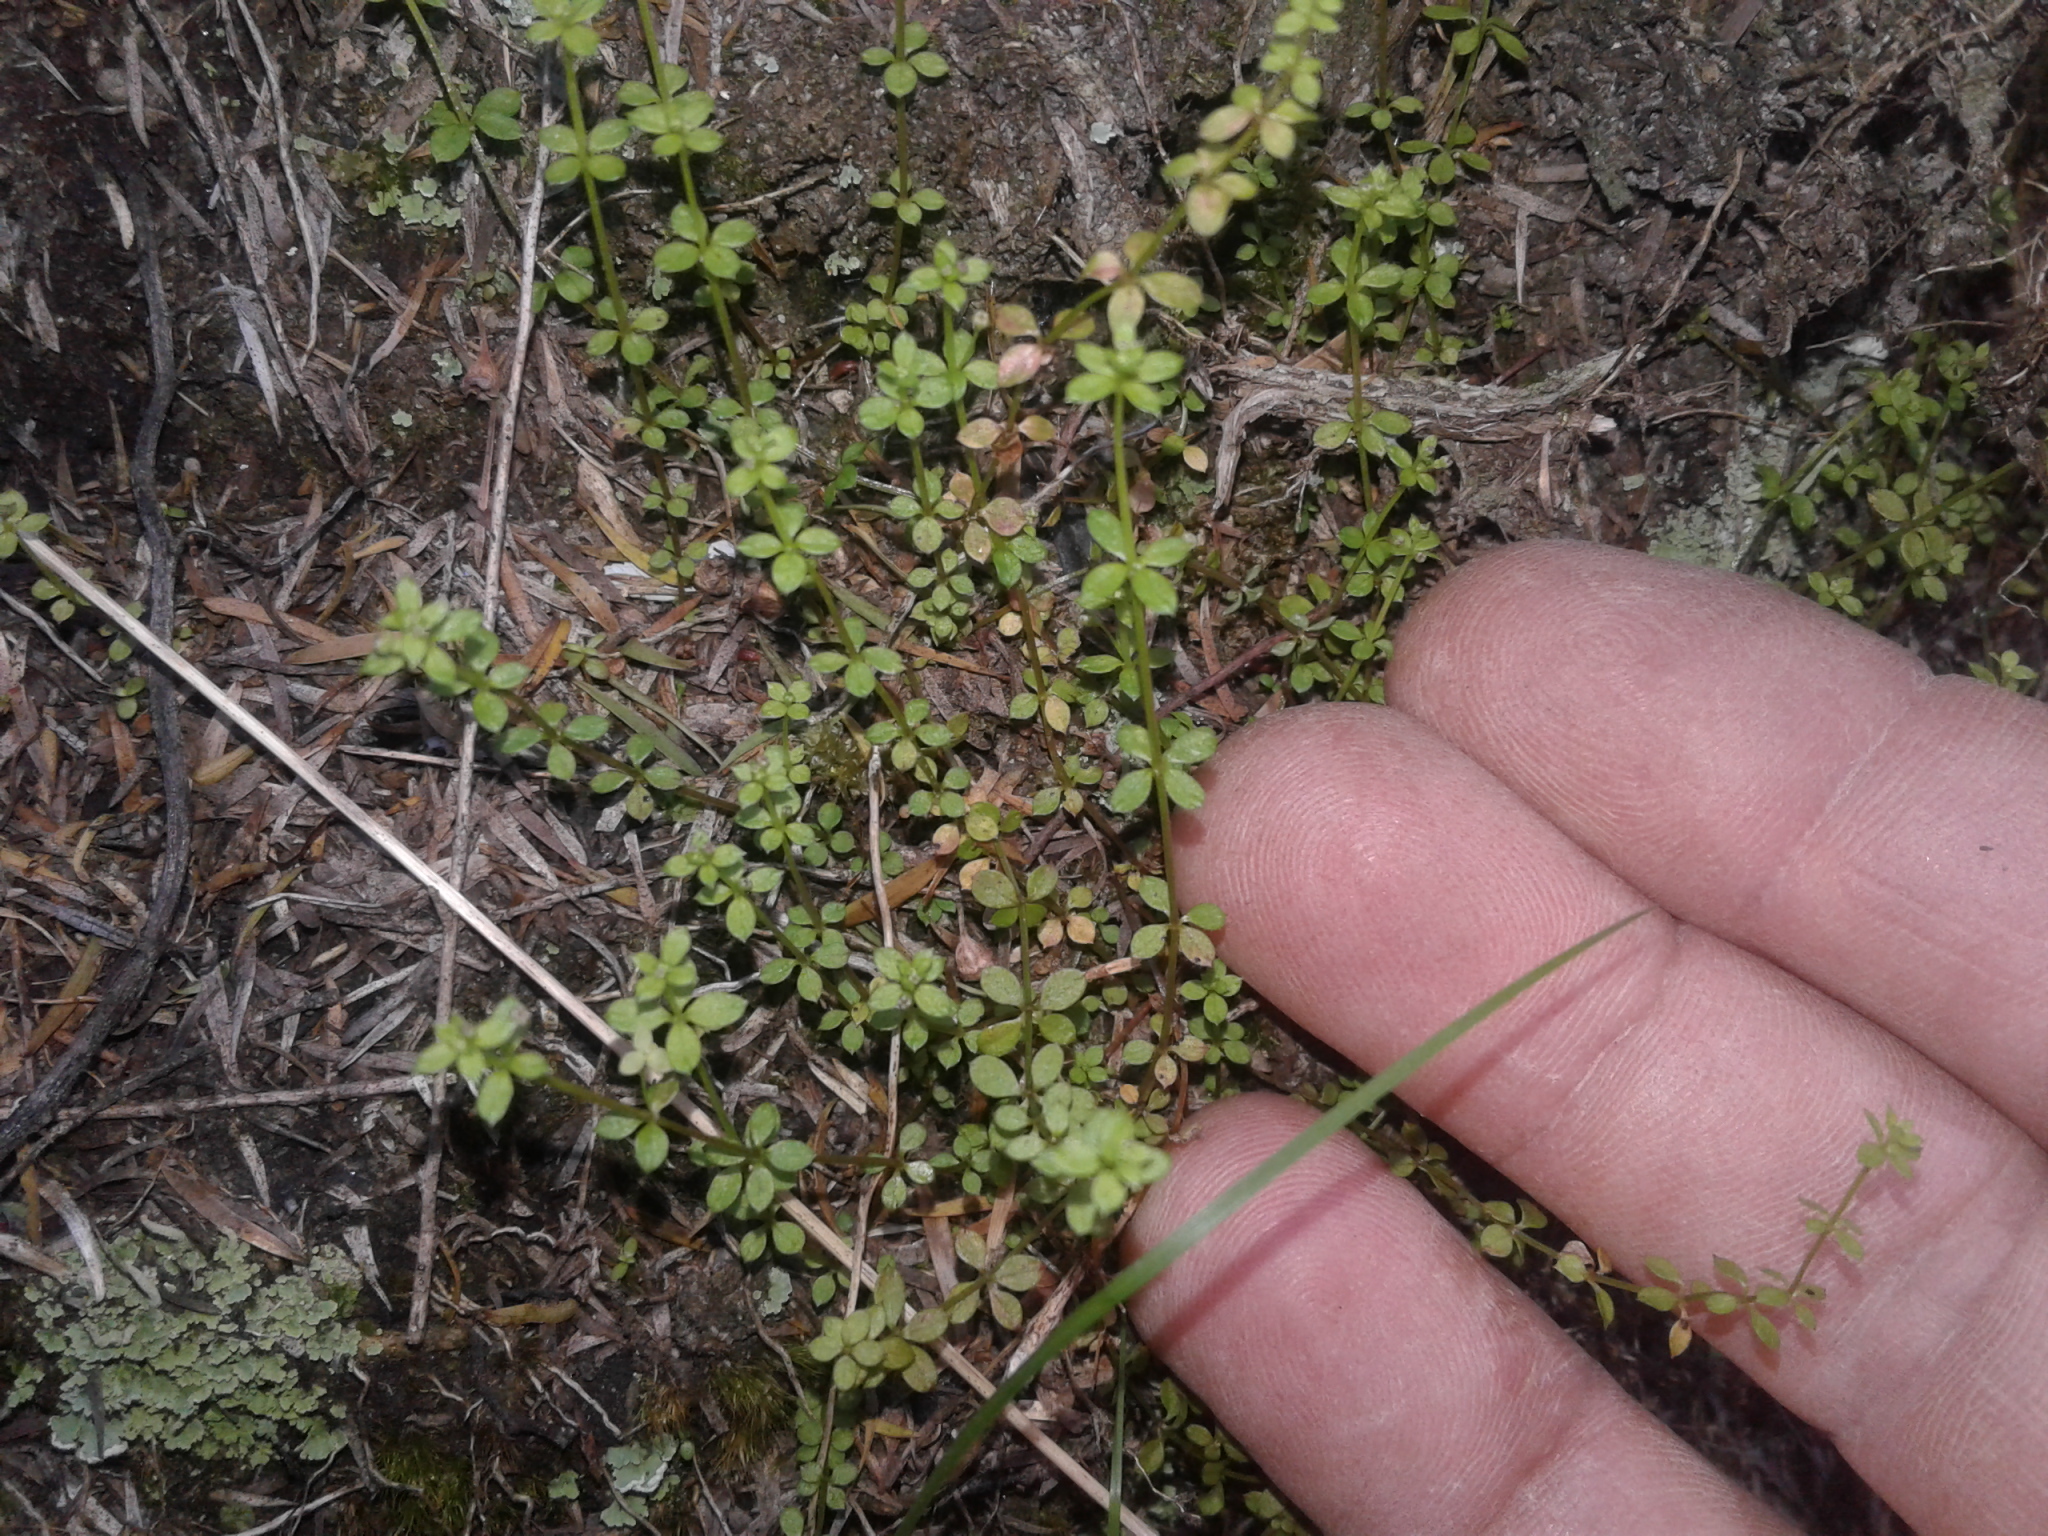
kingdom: Plantae
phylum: Tracheophyta
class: Magnoliopsida
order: Gentianales
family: Rubiaceae
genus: Galium
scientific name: Galium propinquum
